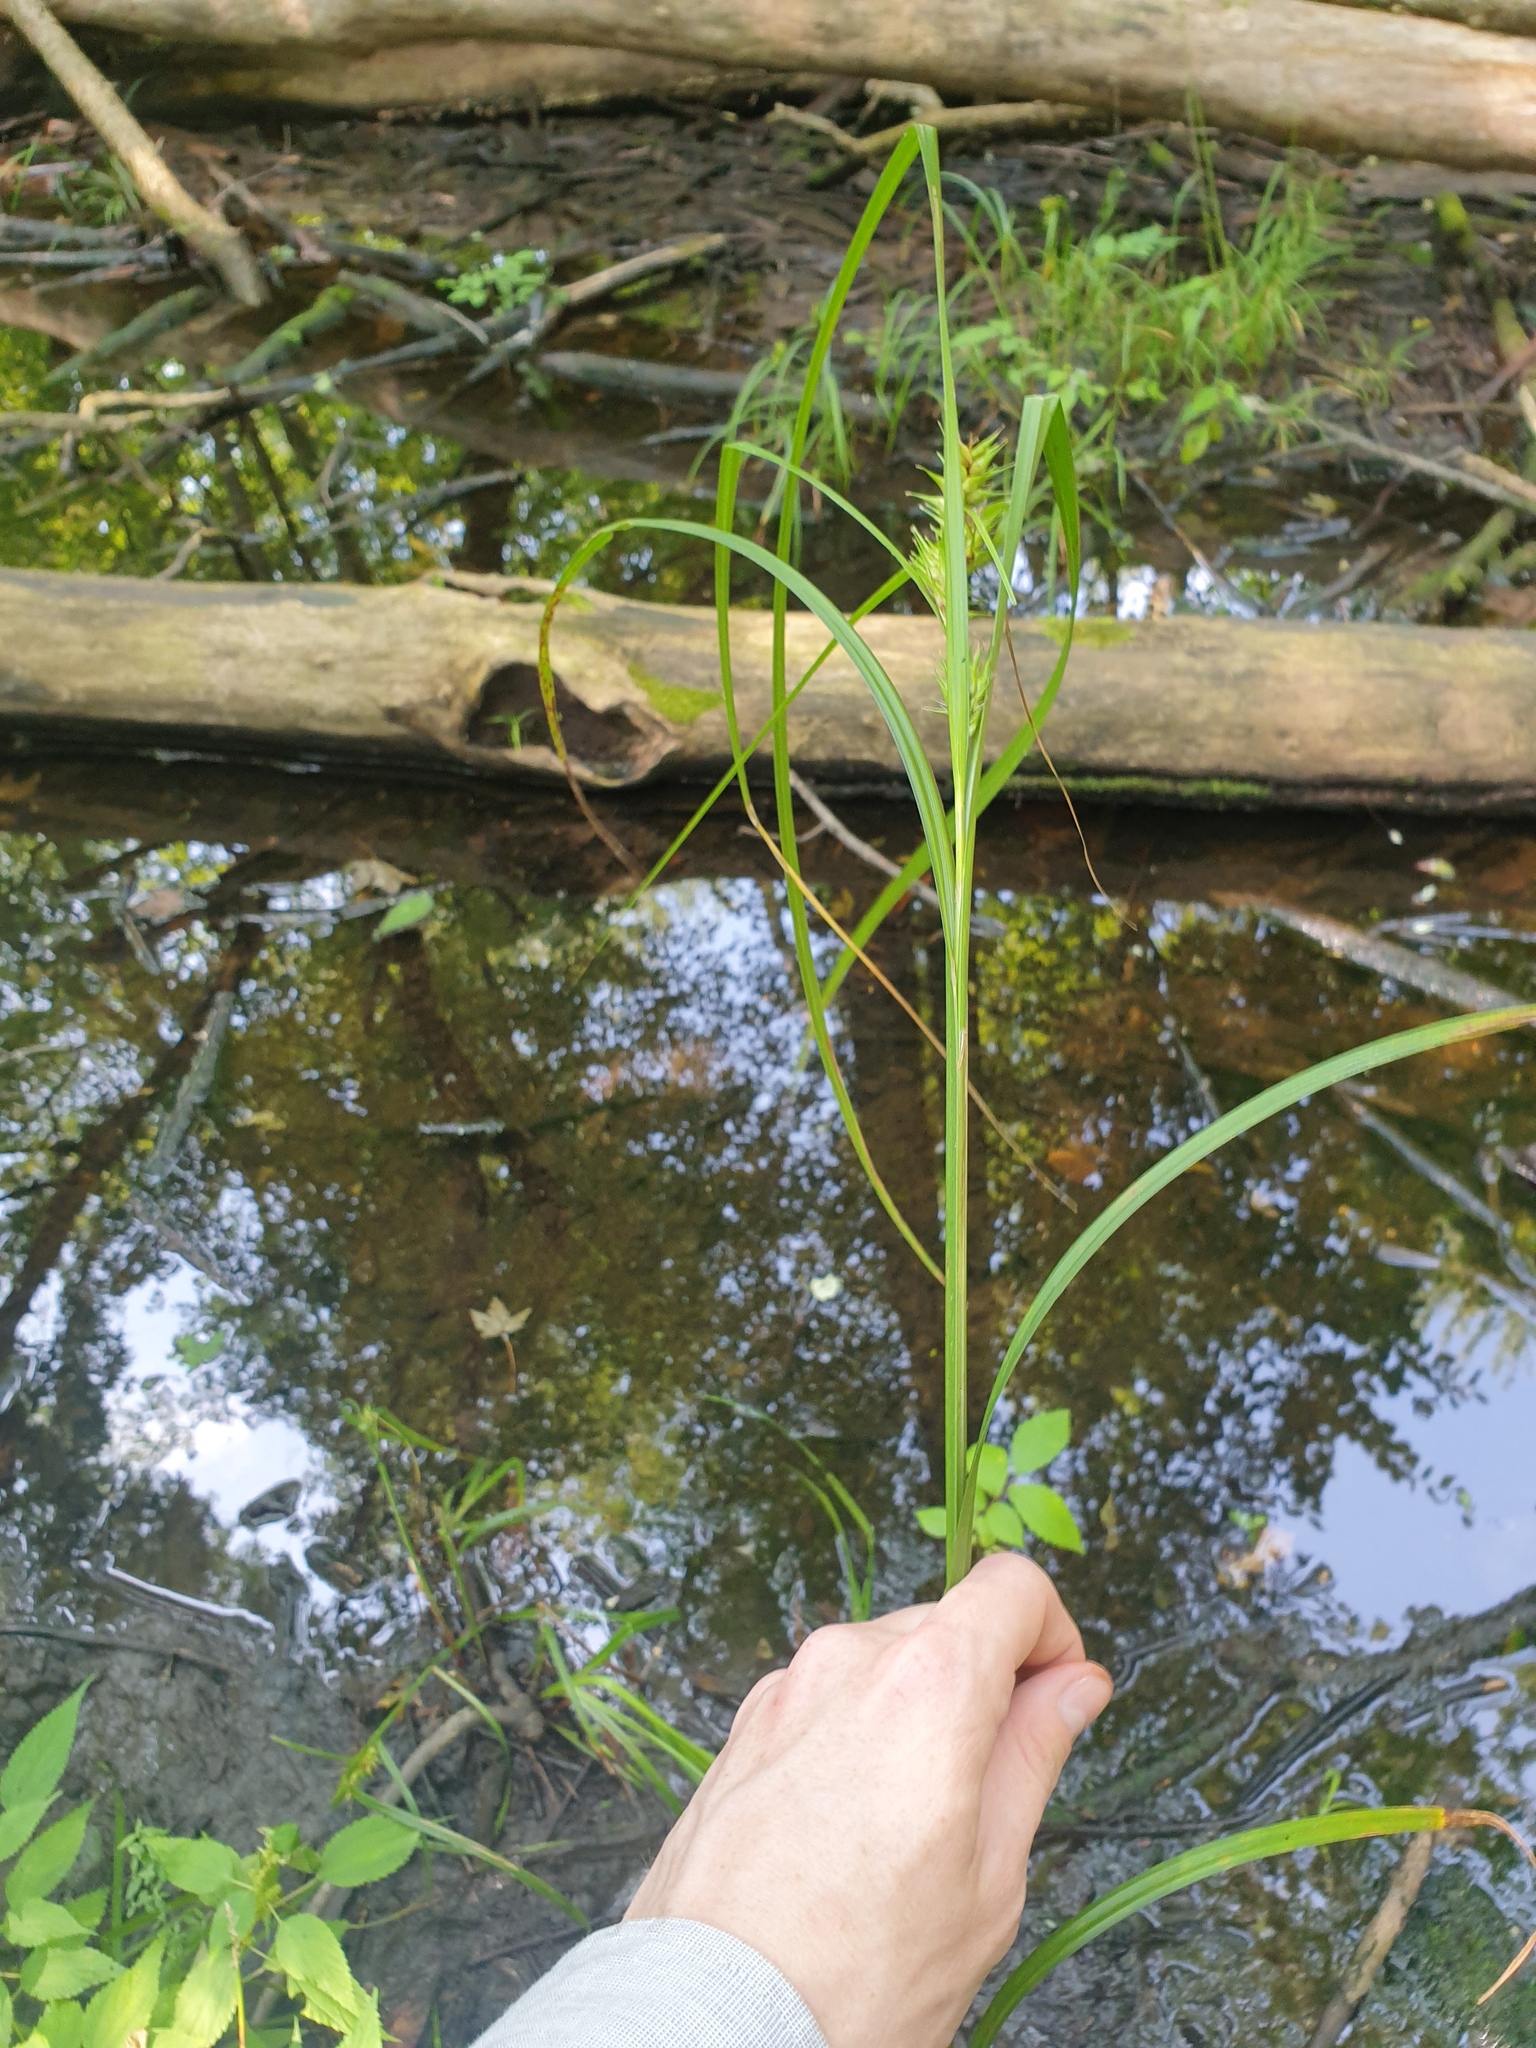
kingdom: Plantae
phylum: Tracheophyta
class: Liliopsida
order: Poales
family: Cyperaceae
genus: Carex
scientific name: Carex lupulina
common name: Hop sedge
